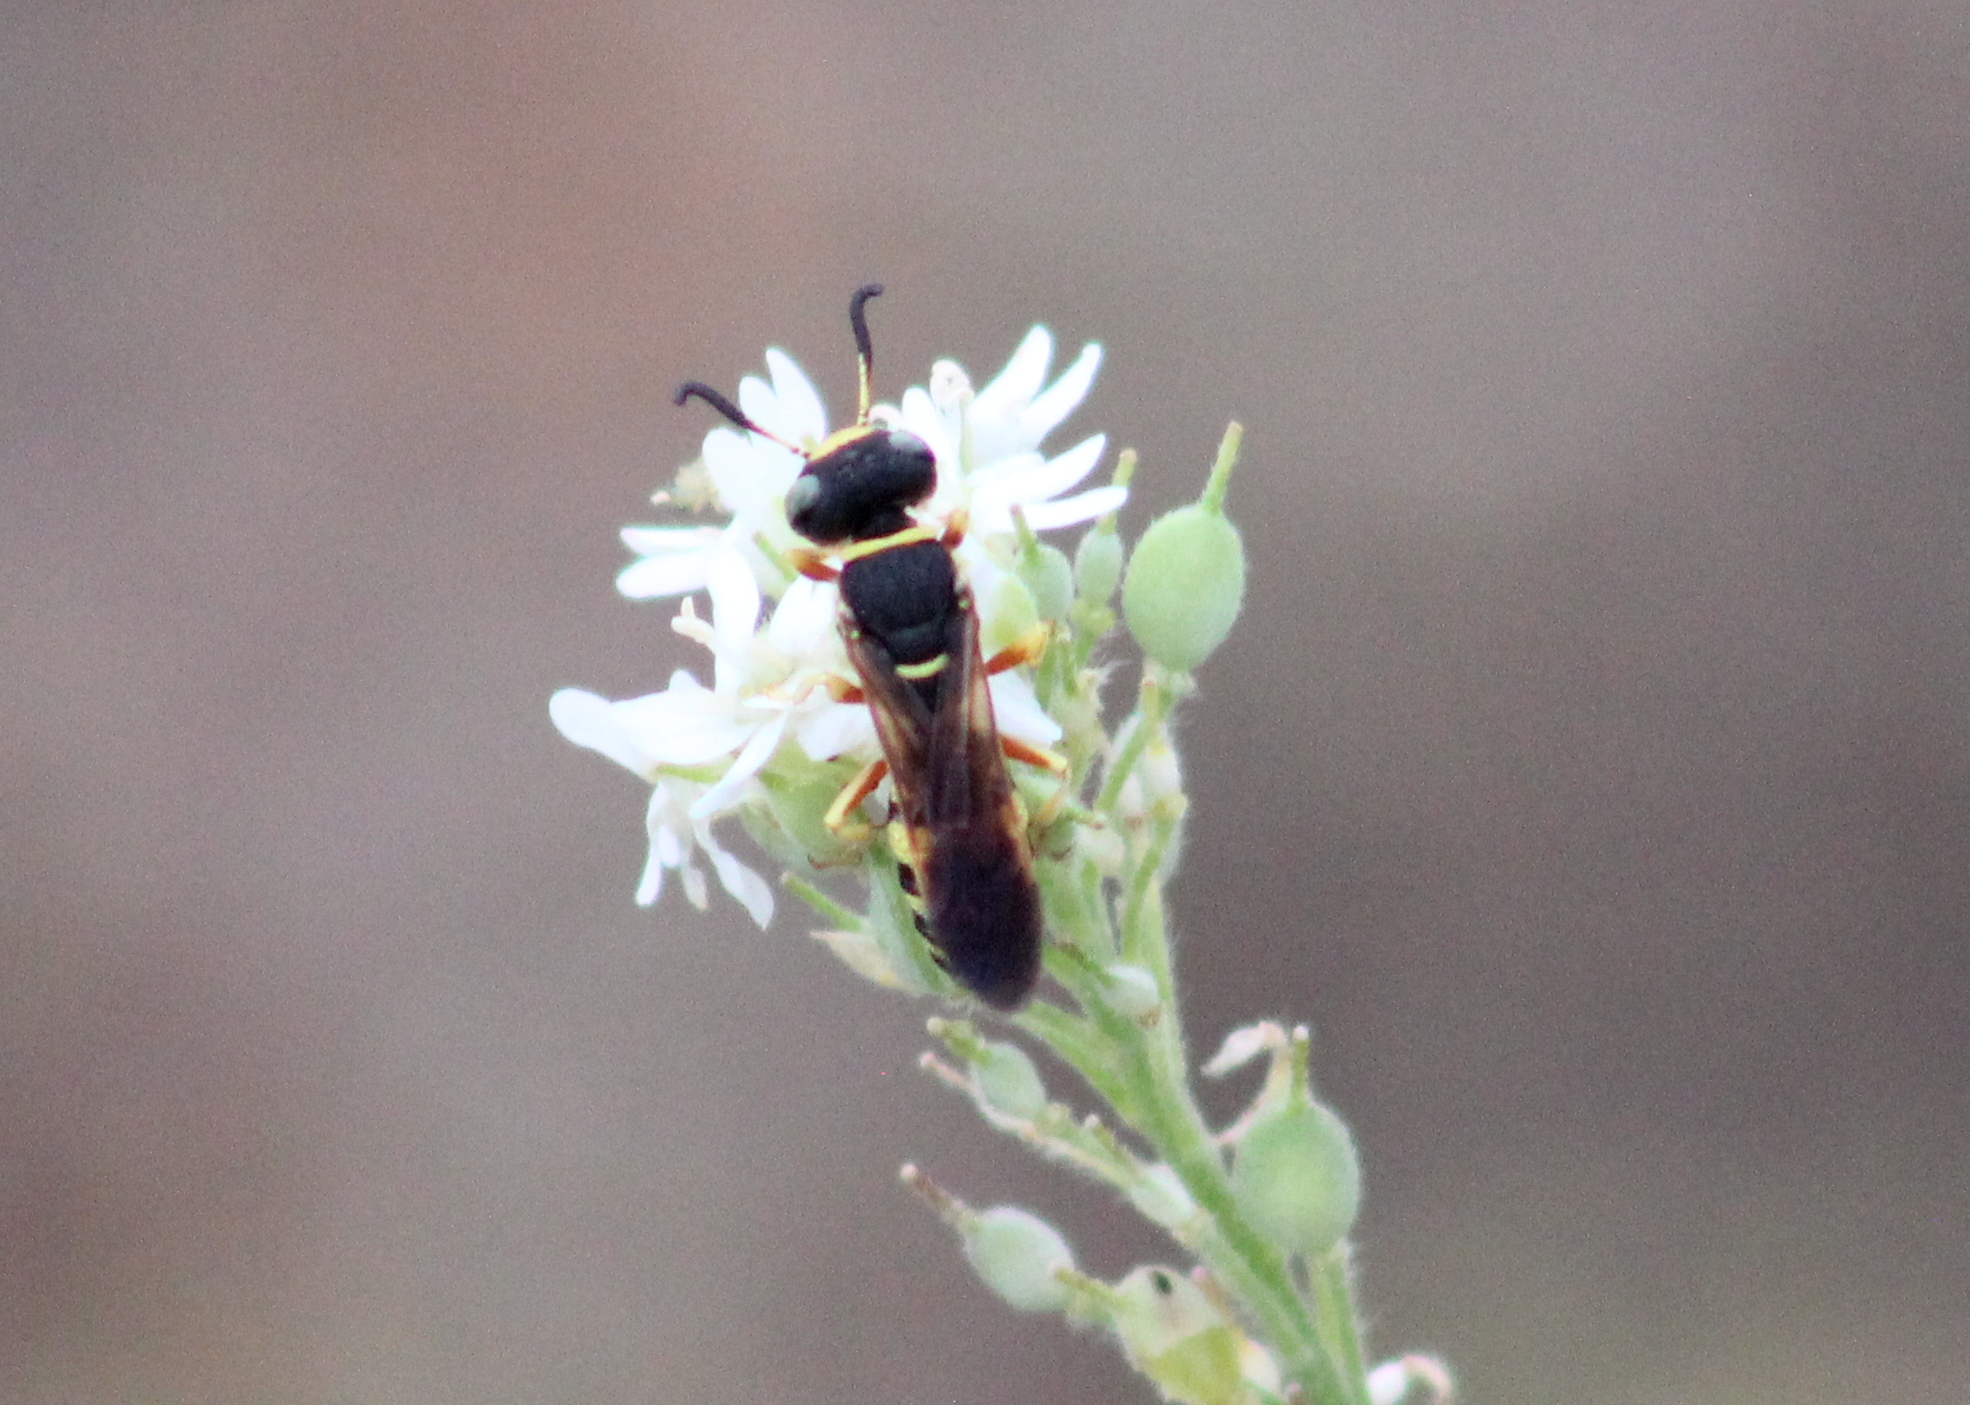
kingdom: Animalia
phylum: Arthropoda
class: Insecta
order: Hymenoptera
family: Crabronidae
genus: Philanthus
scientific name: Philanthus ventilabris
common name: Bee-killer wasp
